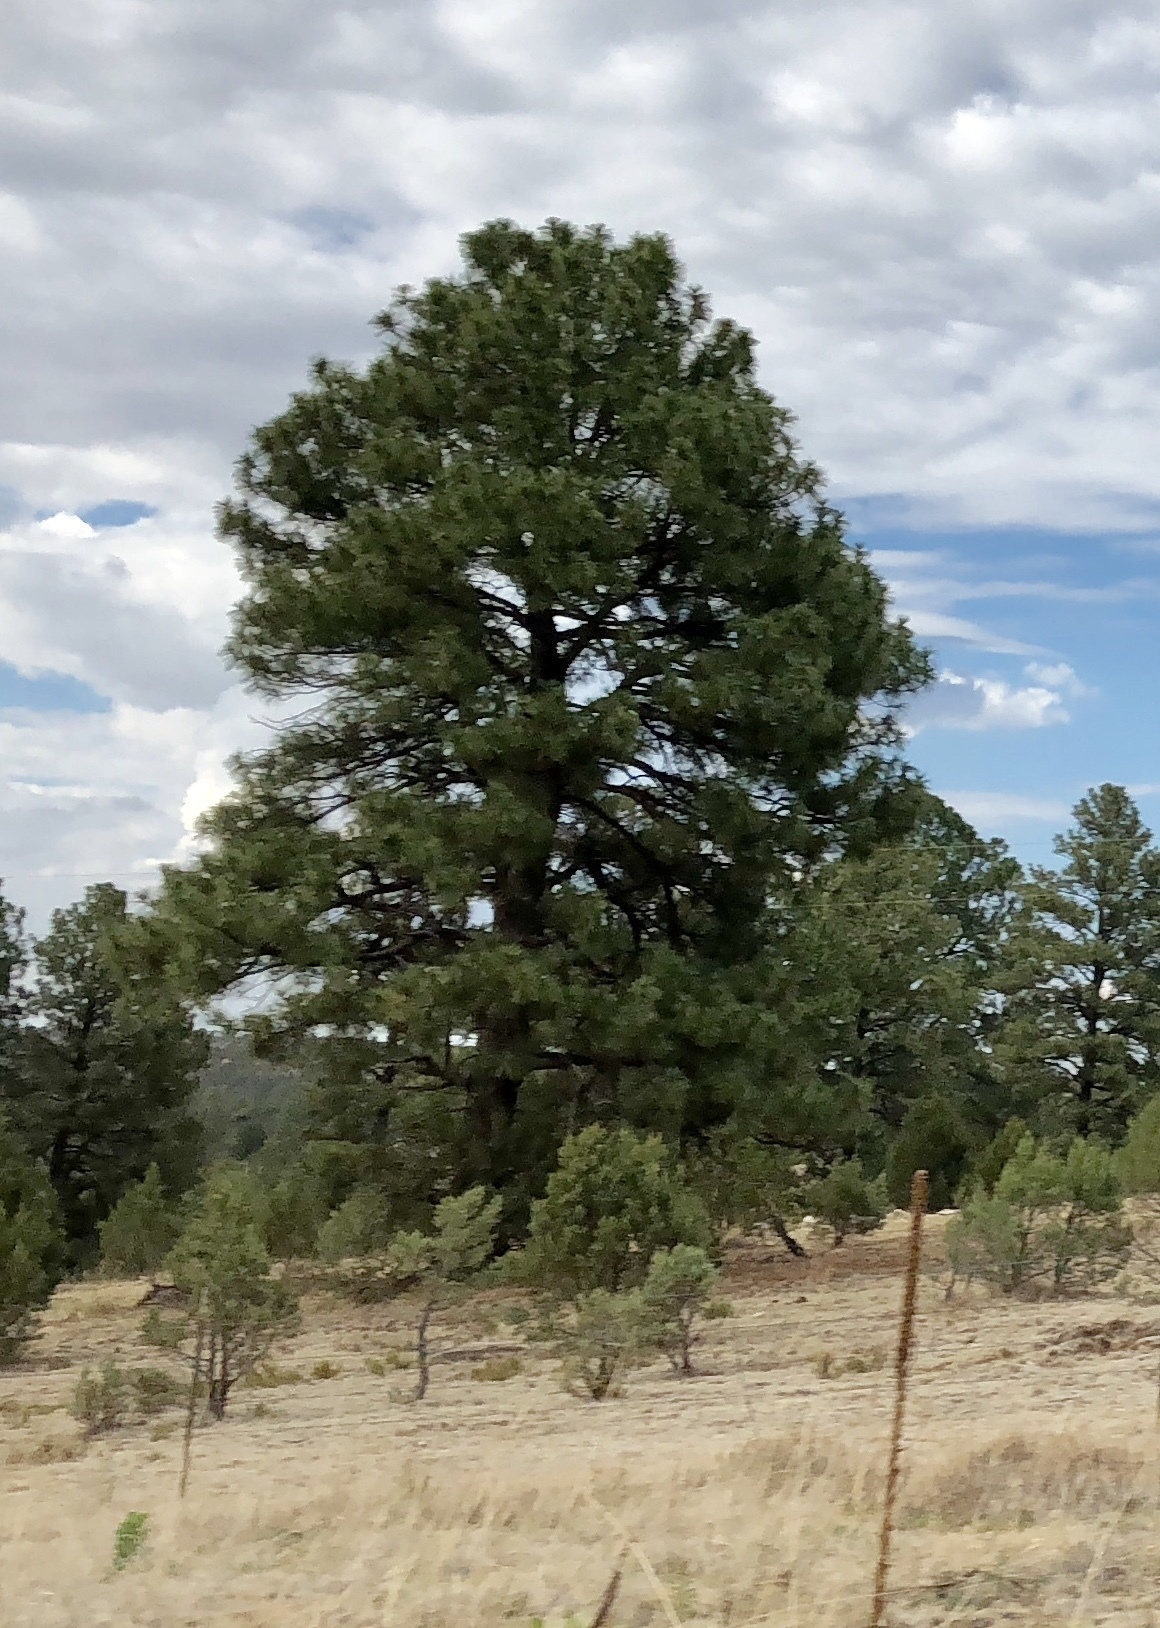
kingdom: Plantae
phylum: Tracheophyta
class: Pinopsida
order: Pinales
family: Pinaceae
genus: Pinus
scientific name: Pinus ponderosa
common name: Western yellow-pine
